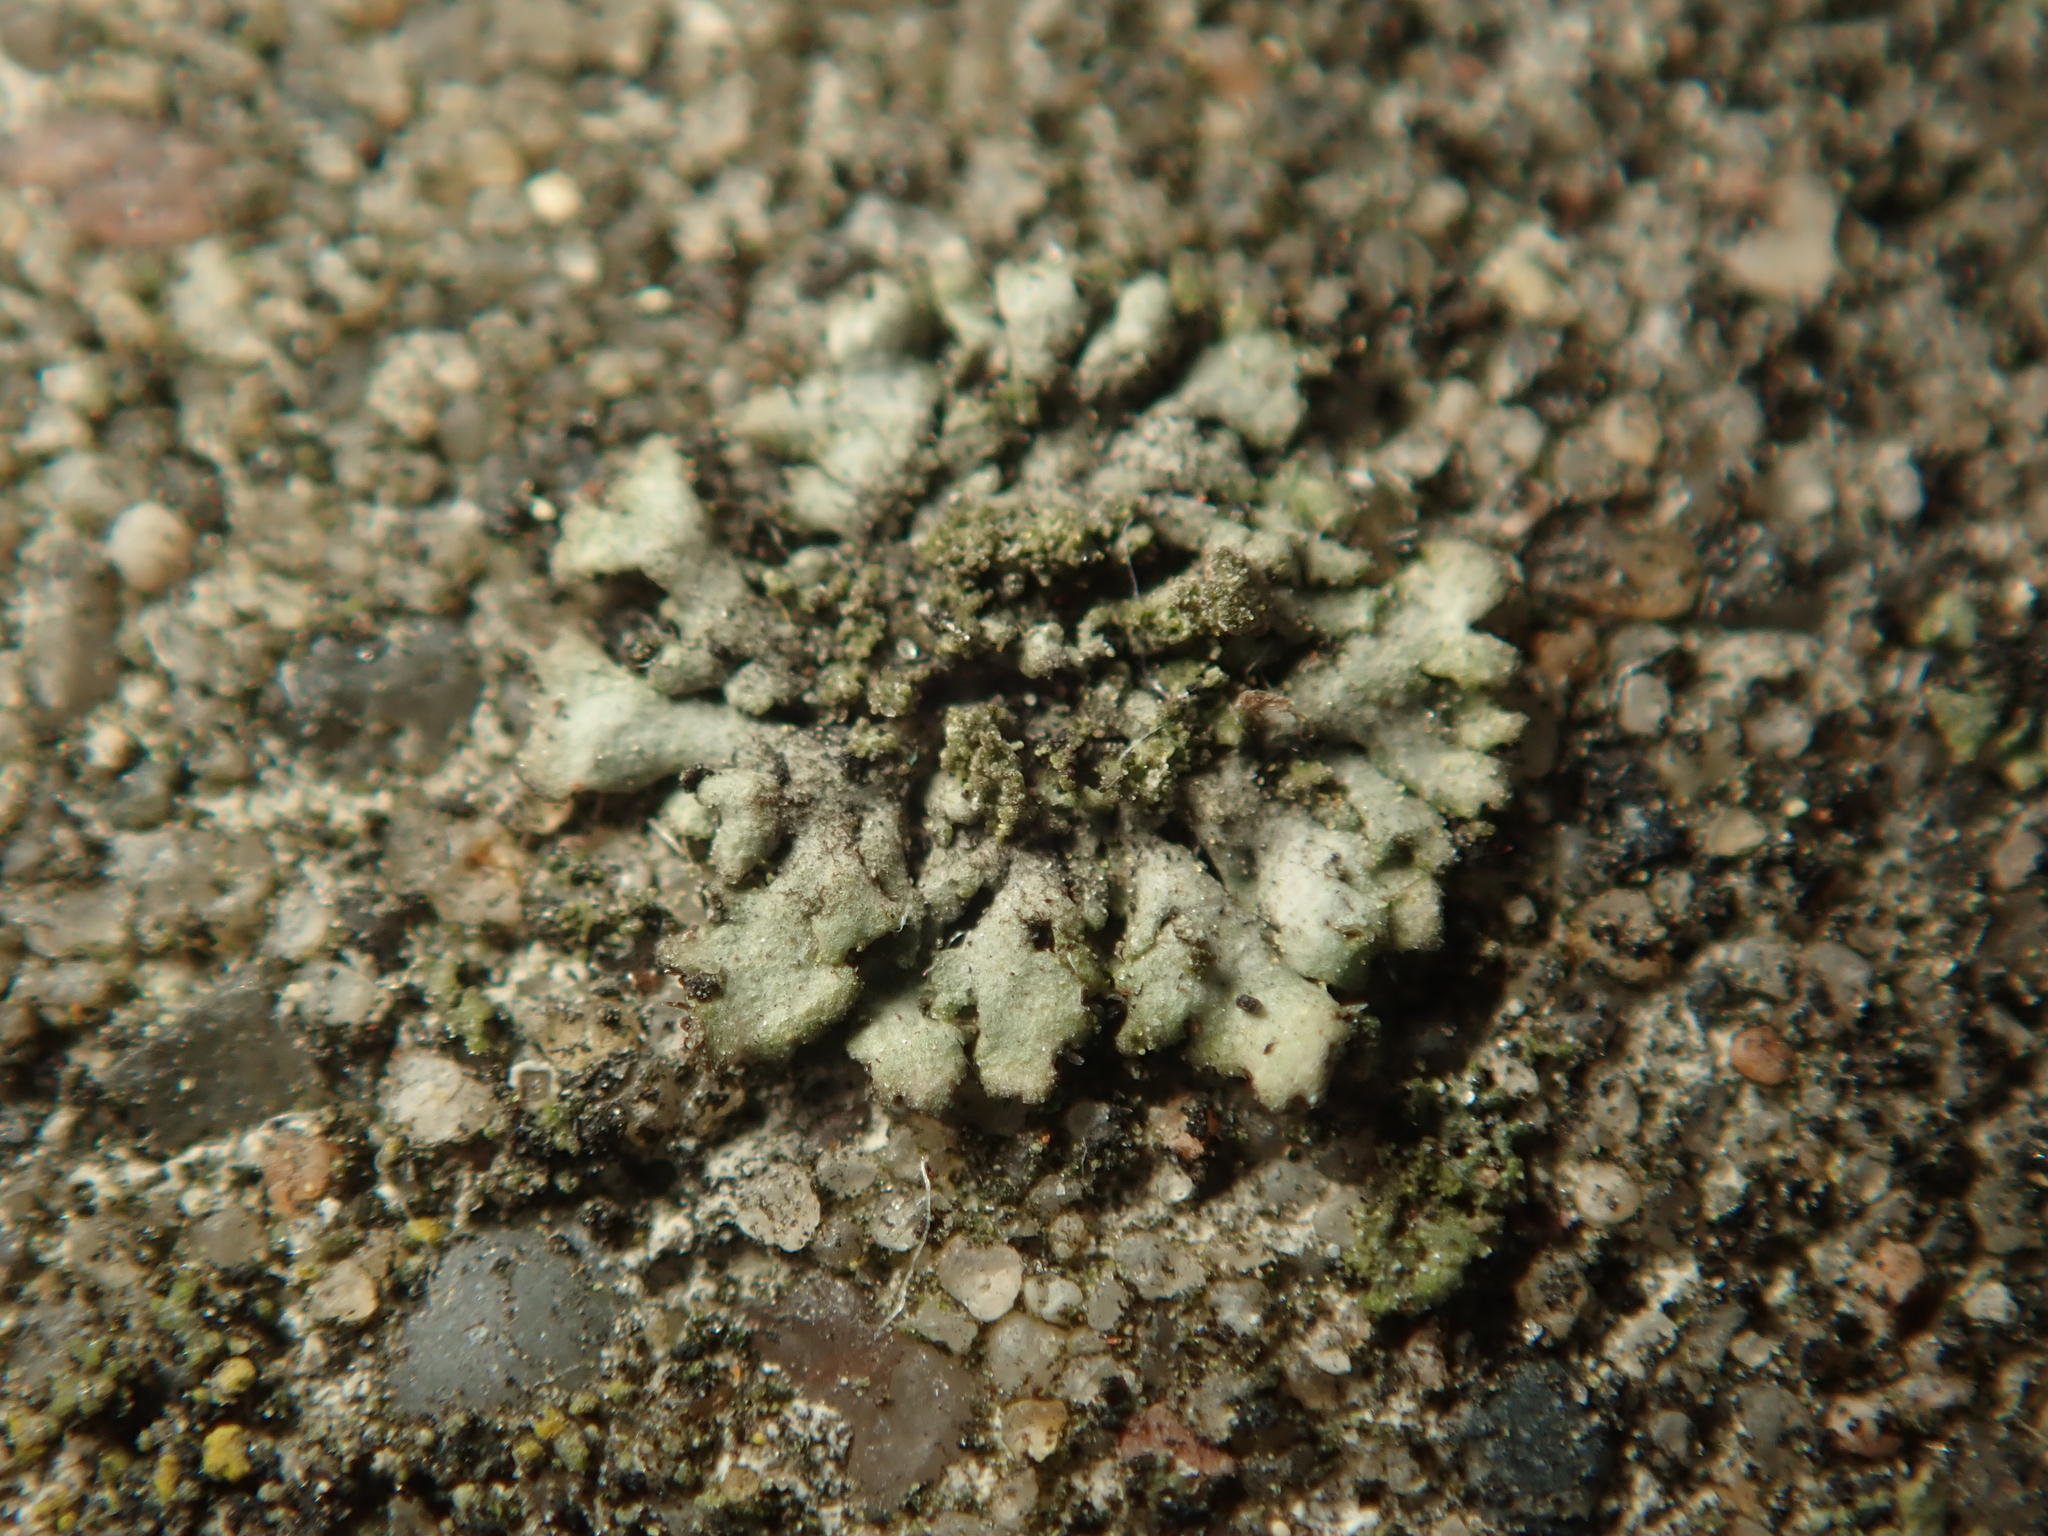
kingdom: Fungi
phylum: Ascomycota
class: Lecanoromycetes
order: Caliciales
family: Physciaceae
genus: Phaeophyscia
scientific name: Phaeophyscia orbicularis
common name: Mealy shadow lichen
